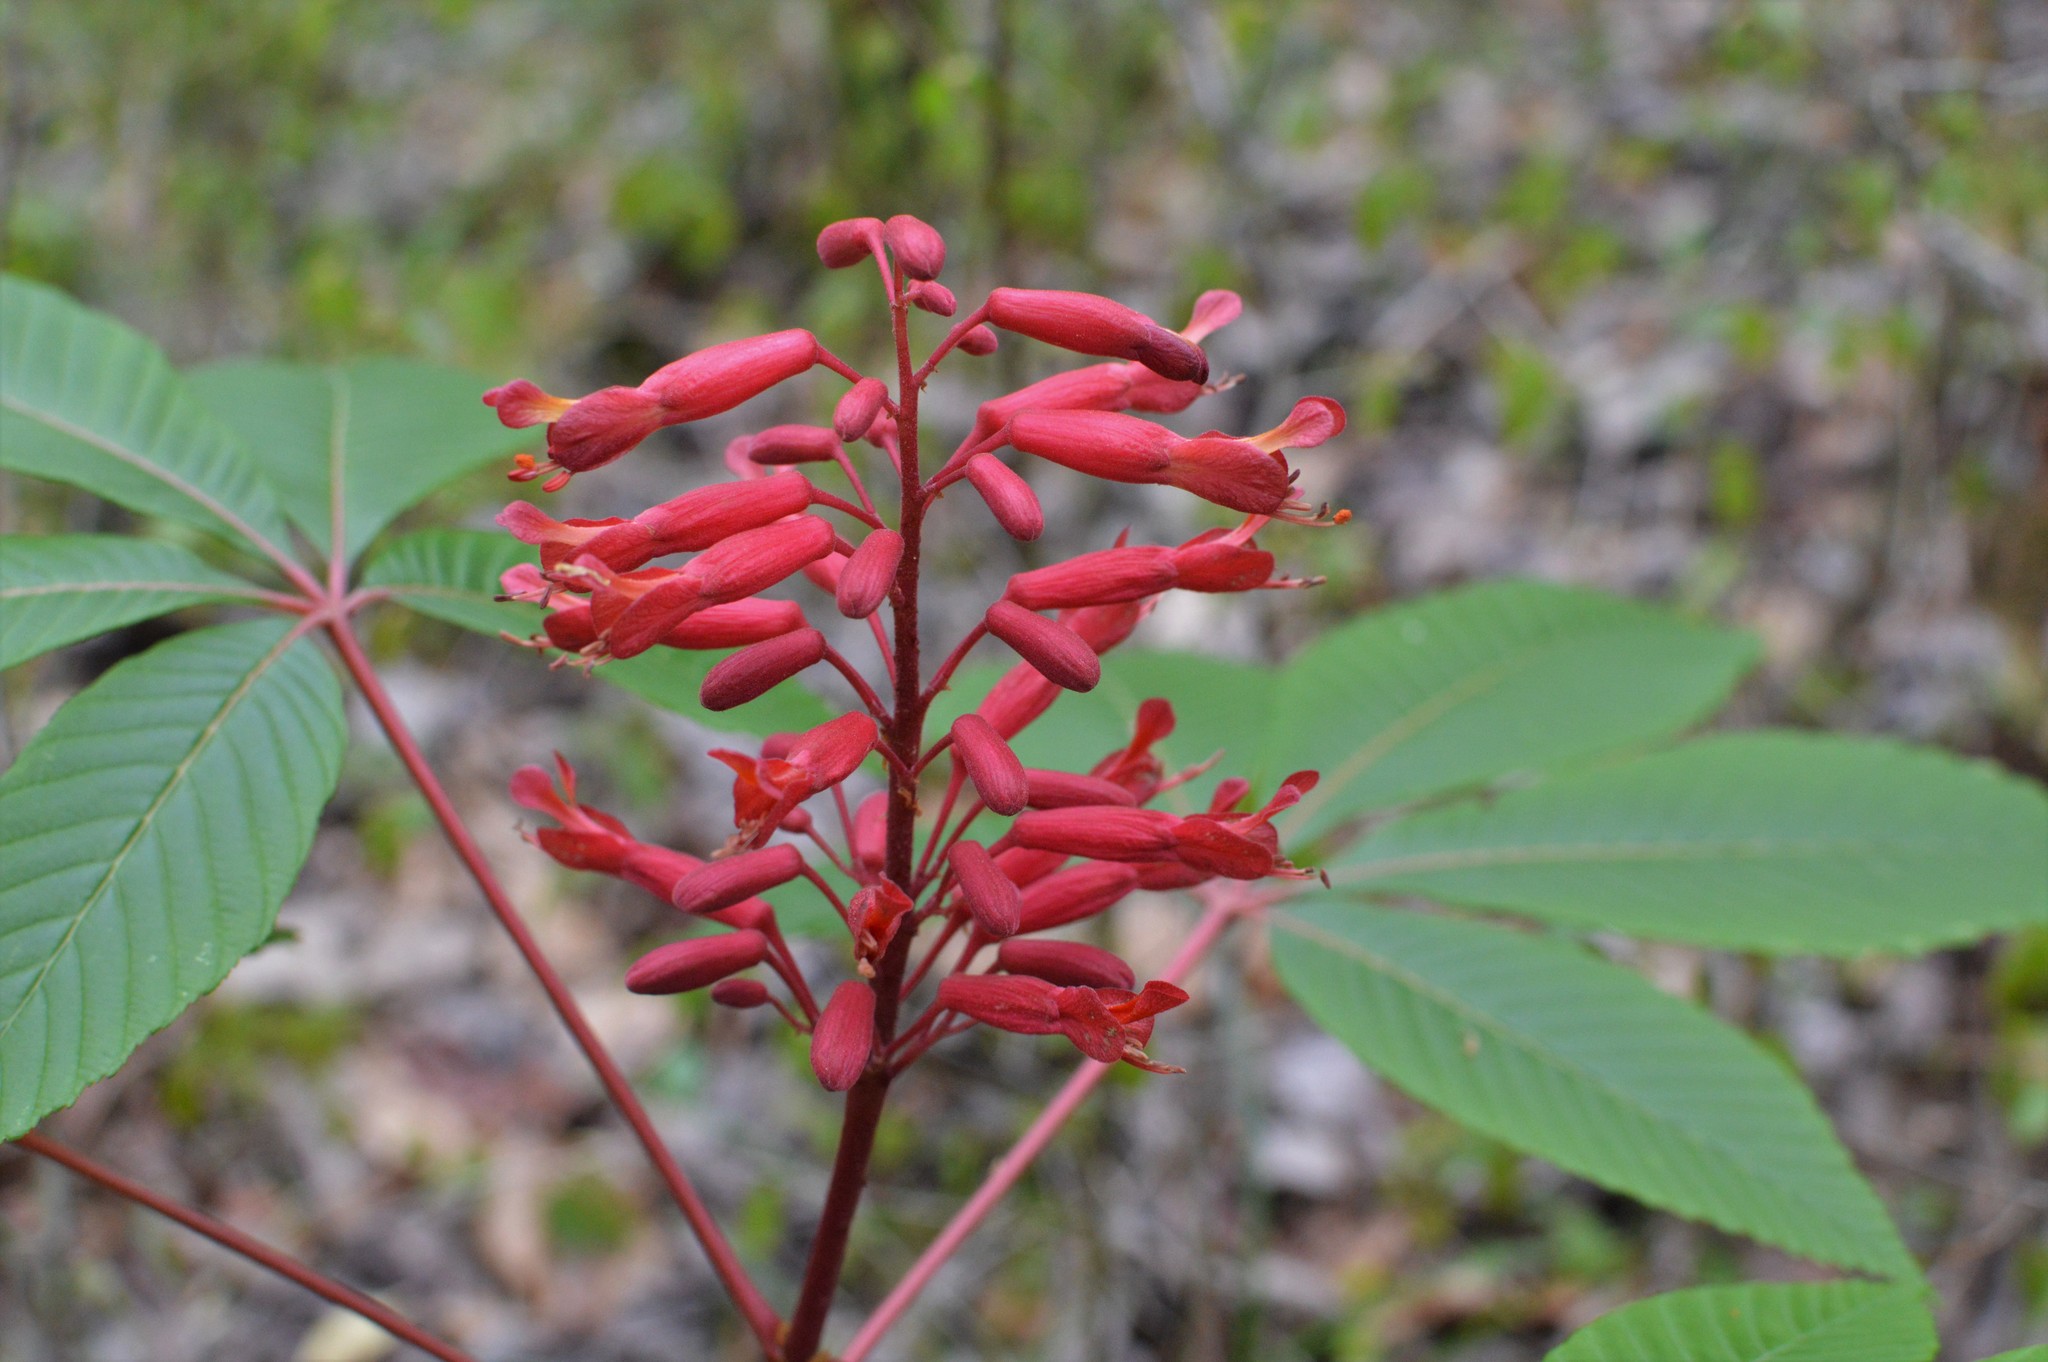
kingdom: Plantae
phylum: Tracheophyta
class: Magnoliopsida
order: Sapindales
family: Sapindaceae
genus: Aesculus
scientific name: Aesculus pavia
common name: Red buckeye
